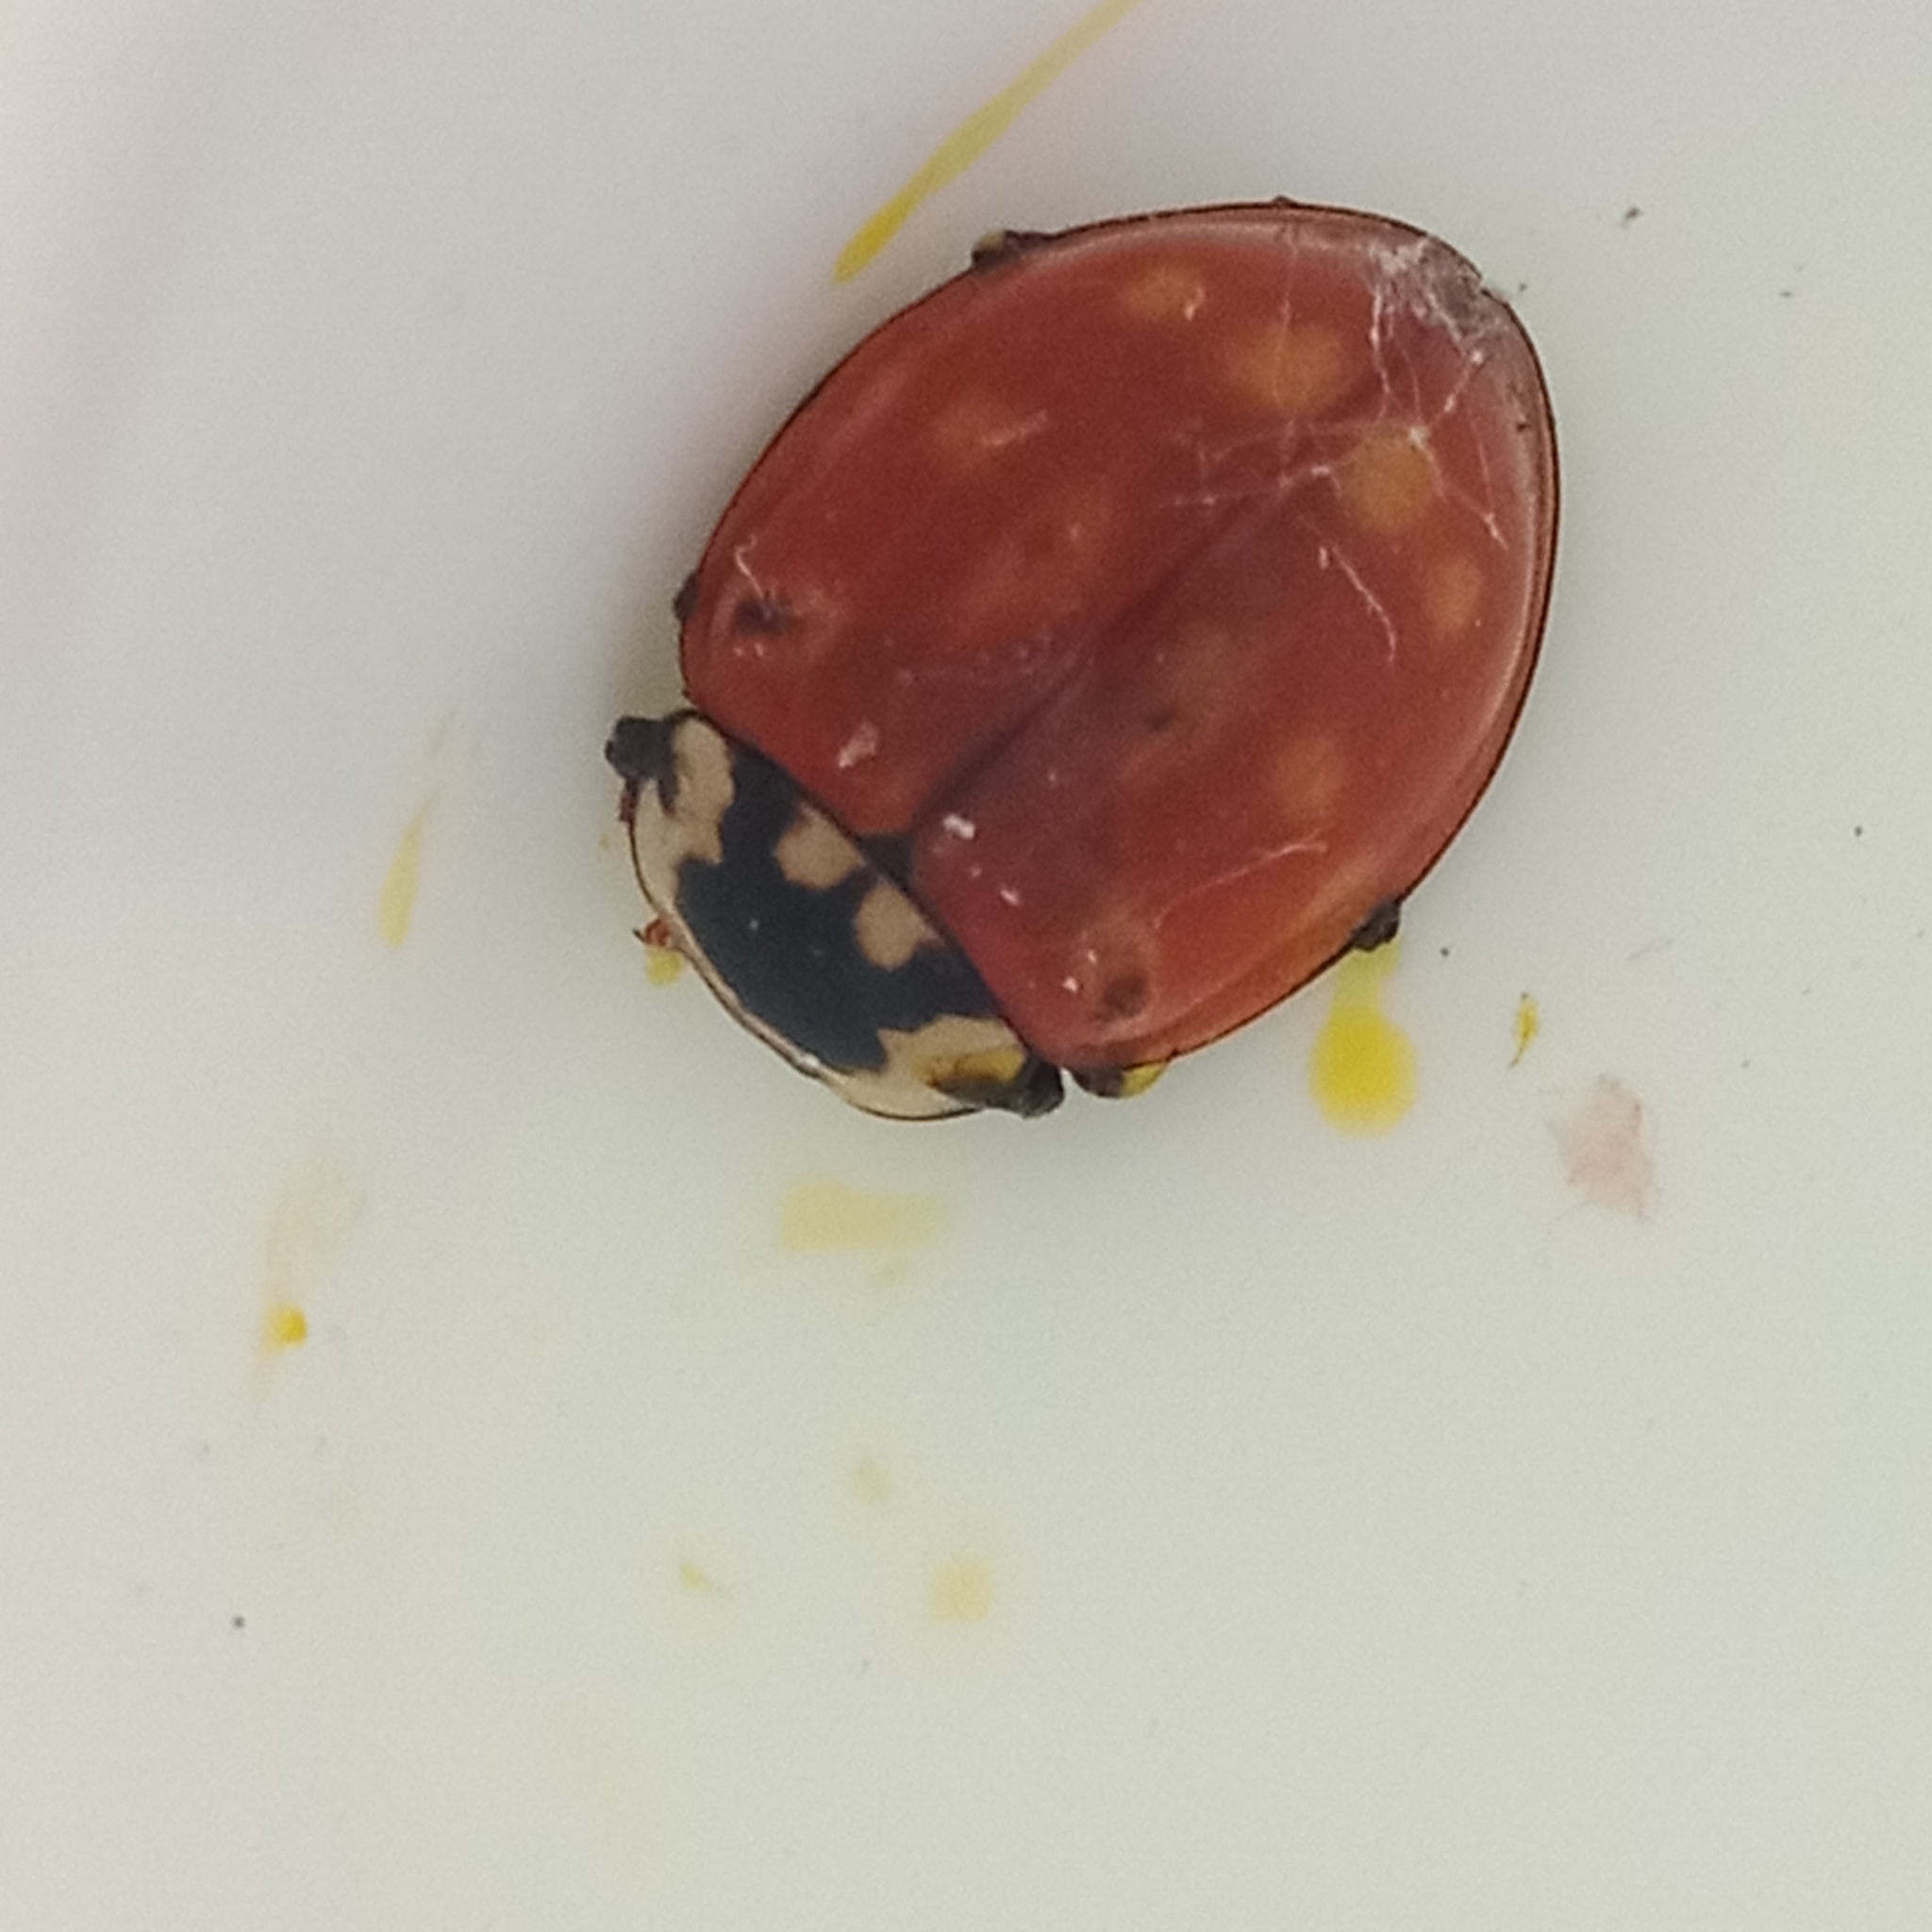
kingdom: Animalia
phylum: Arthropoda
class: Insecta
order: Coleoptera
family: Coccinellidae
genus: Anatis
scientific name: Anatis ocellata
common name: Eyed ladybird
